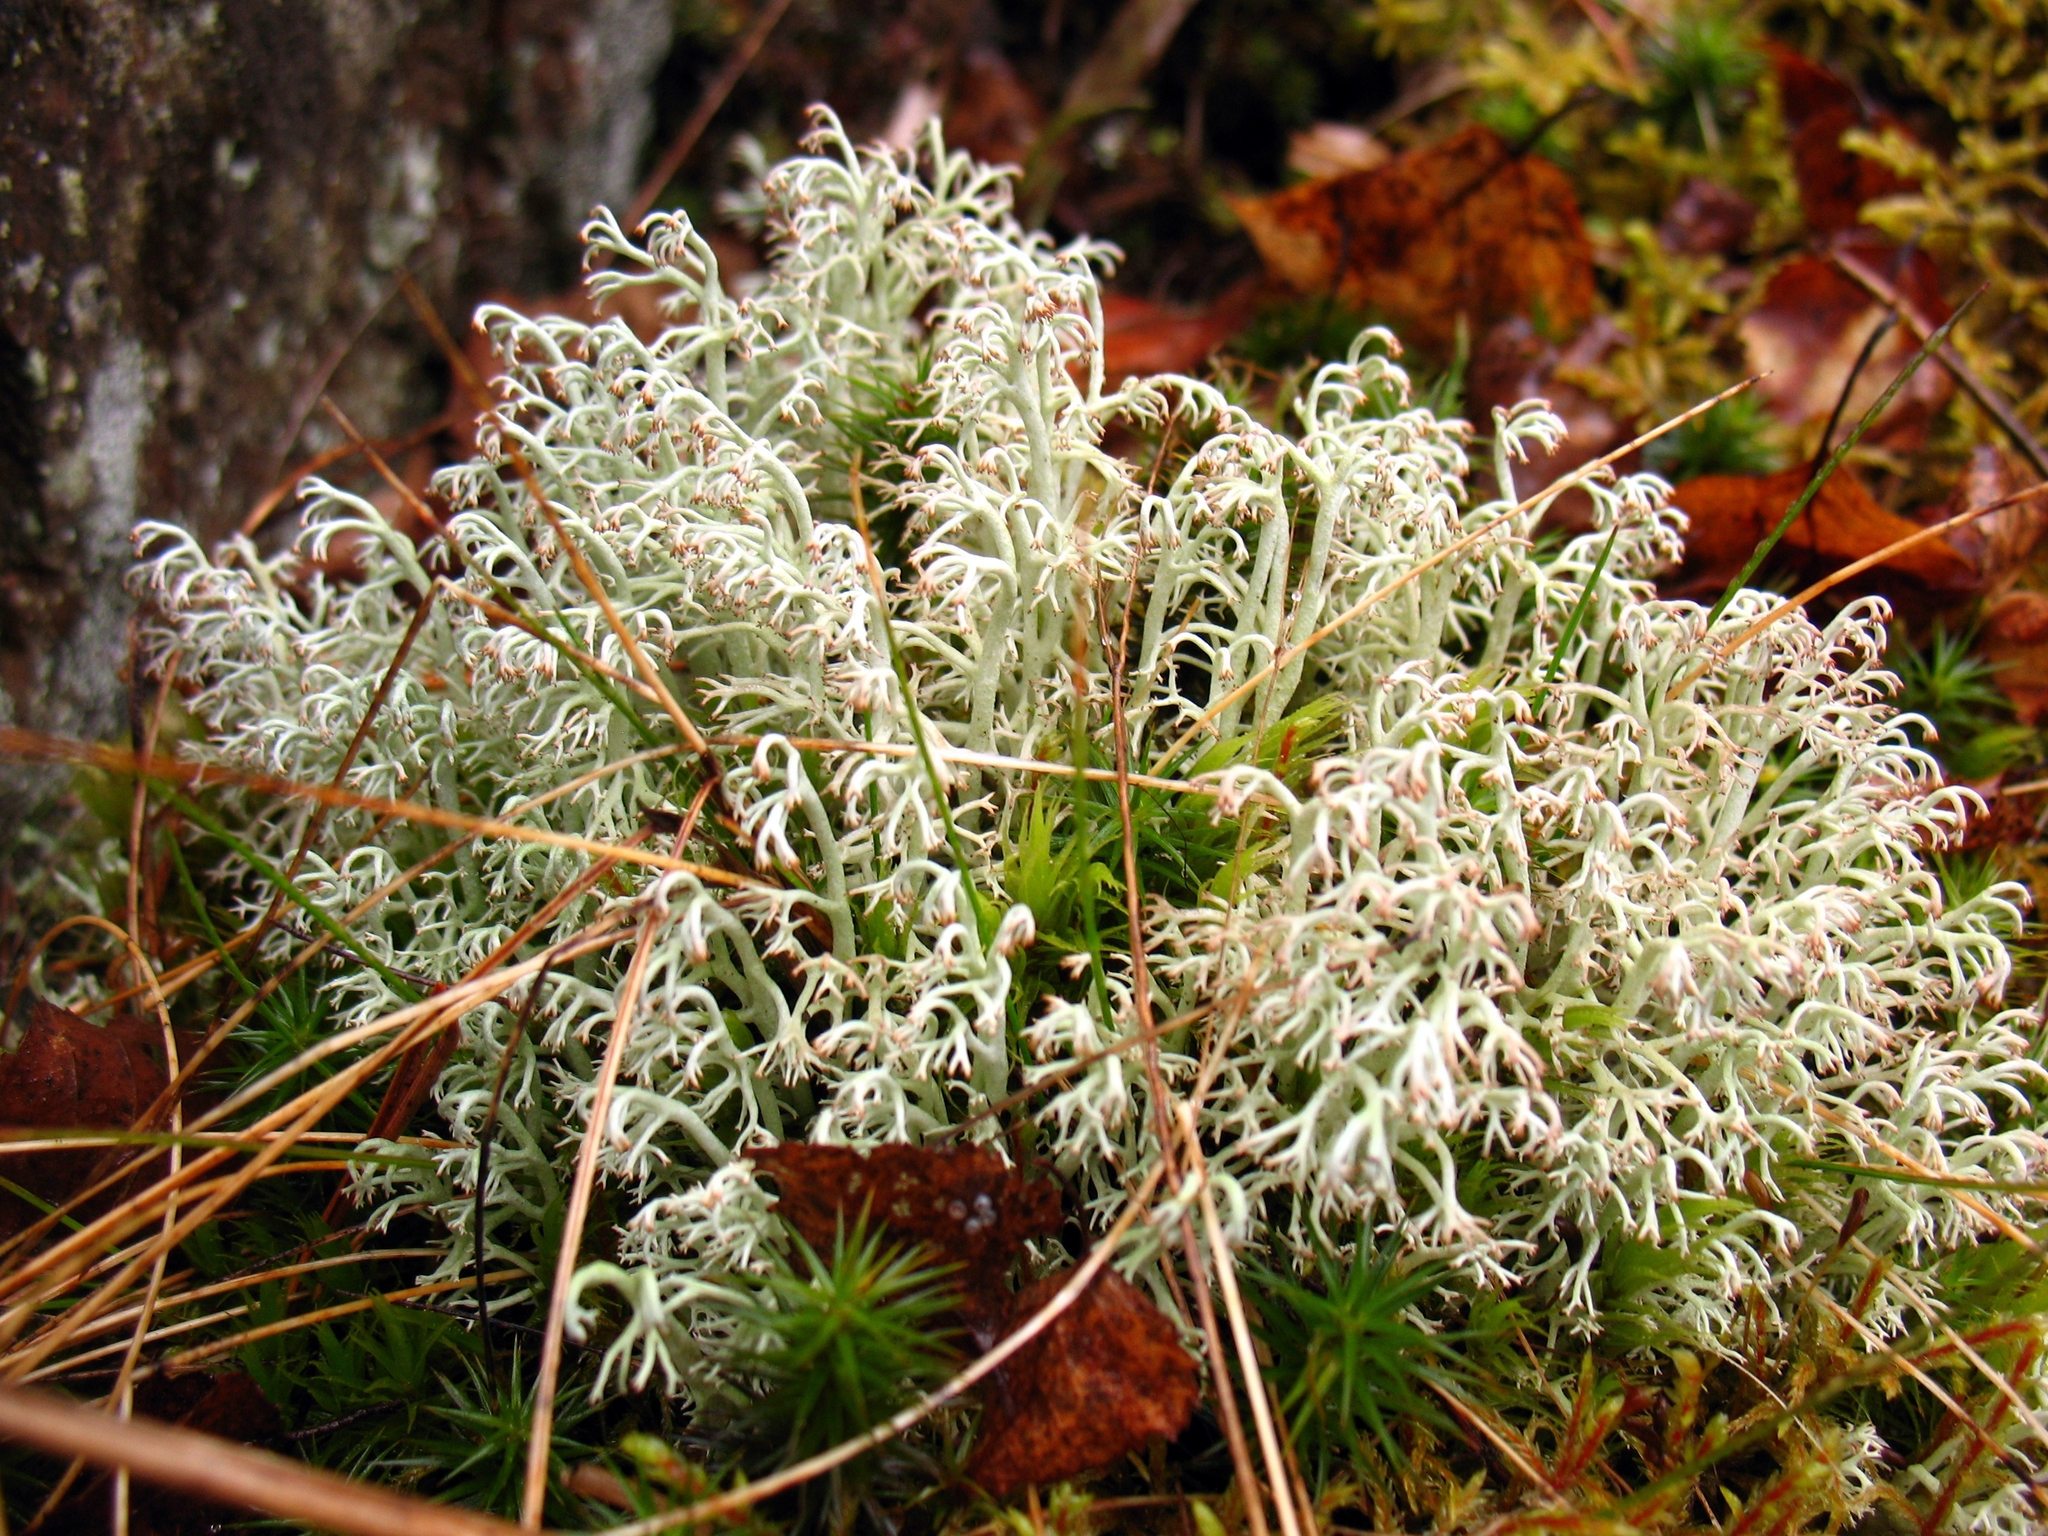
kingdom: Fungi
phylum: Ascomycota
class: Lecanoromycetes
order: Lecanorales
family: Cladoniaceae
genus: Cladonia
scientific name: Cladonia arbuscula
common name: Reindeer lichen
